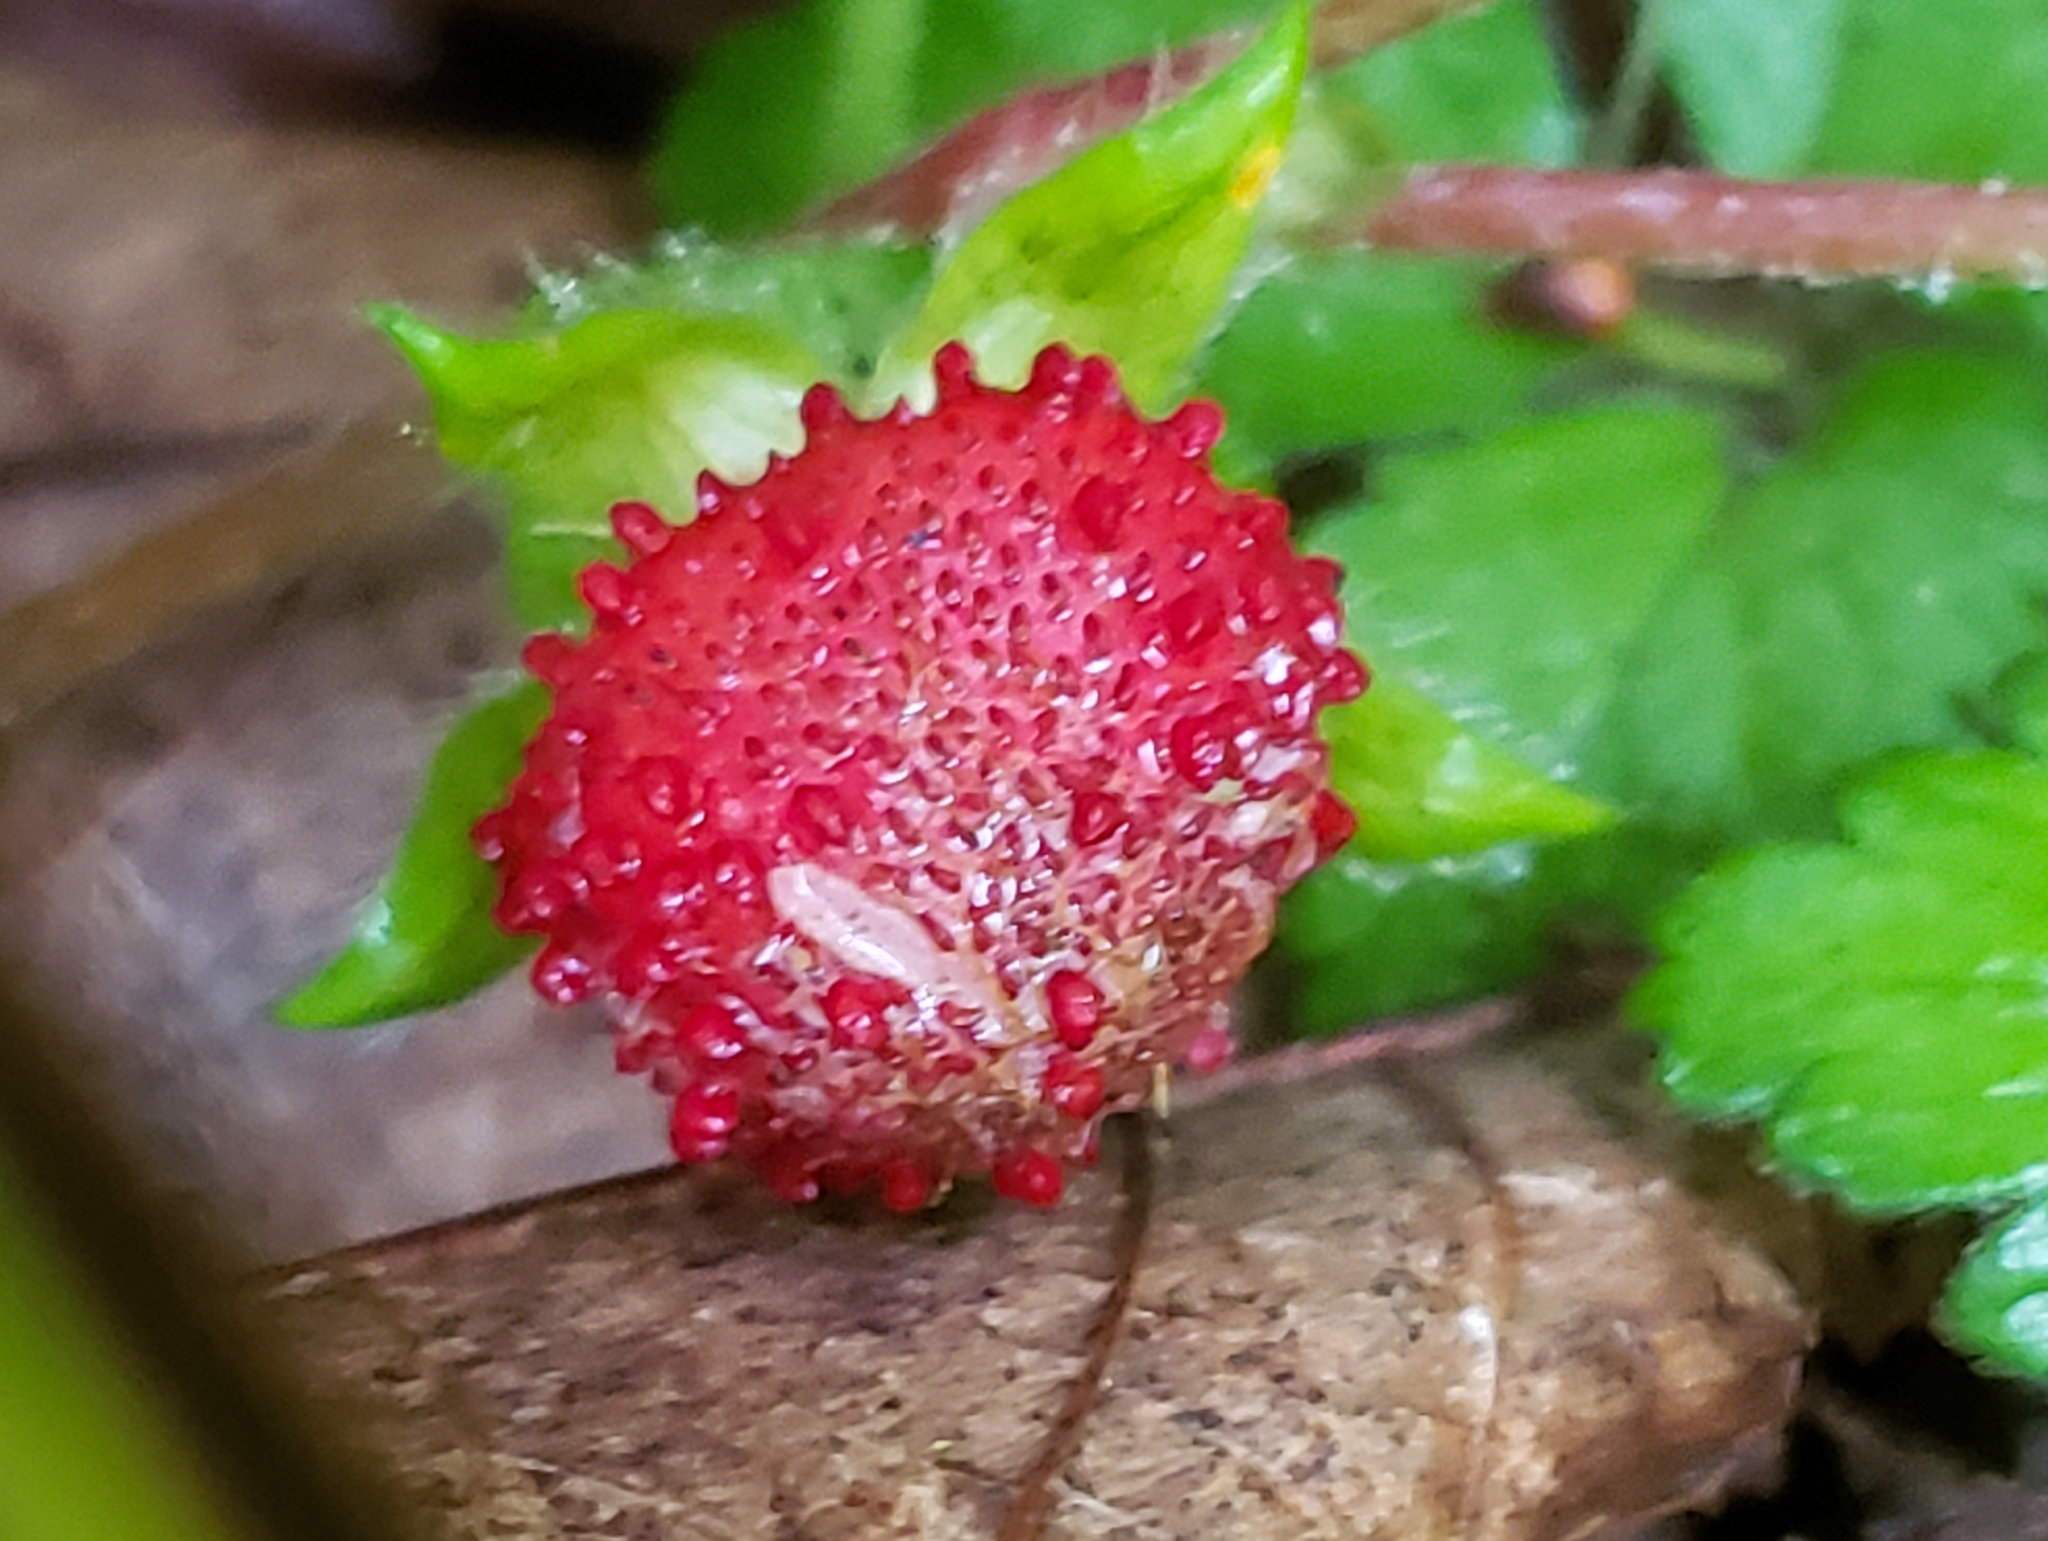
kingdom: Plantae
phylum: Tracheophyta
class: Magnoliopsida
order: Rosales
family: Rosaceae
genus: Potentilla
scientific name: Potentilla indica
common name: Yellow-flowered strawberry
